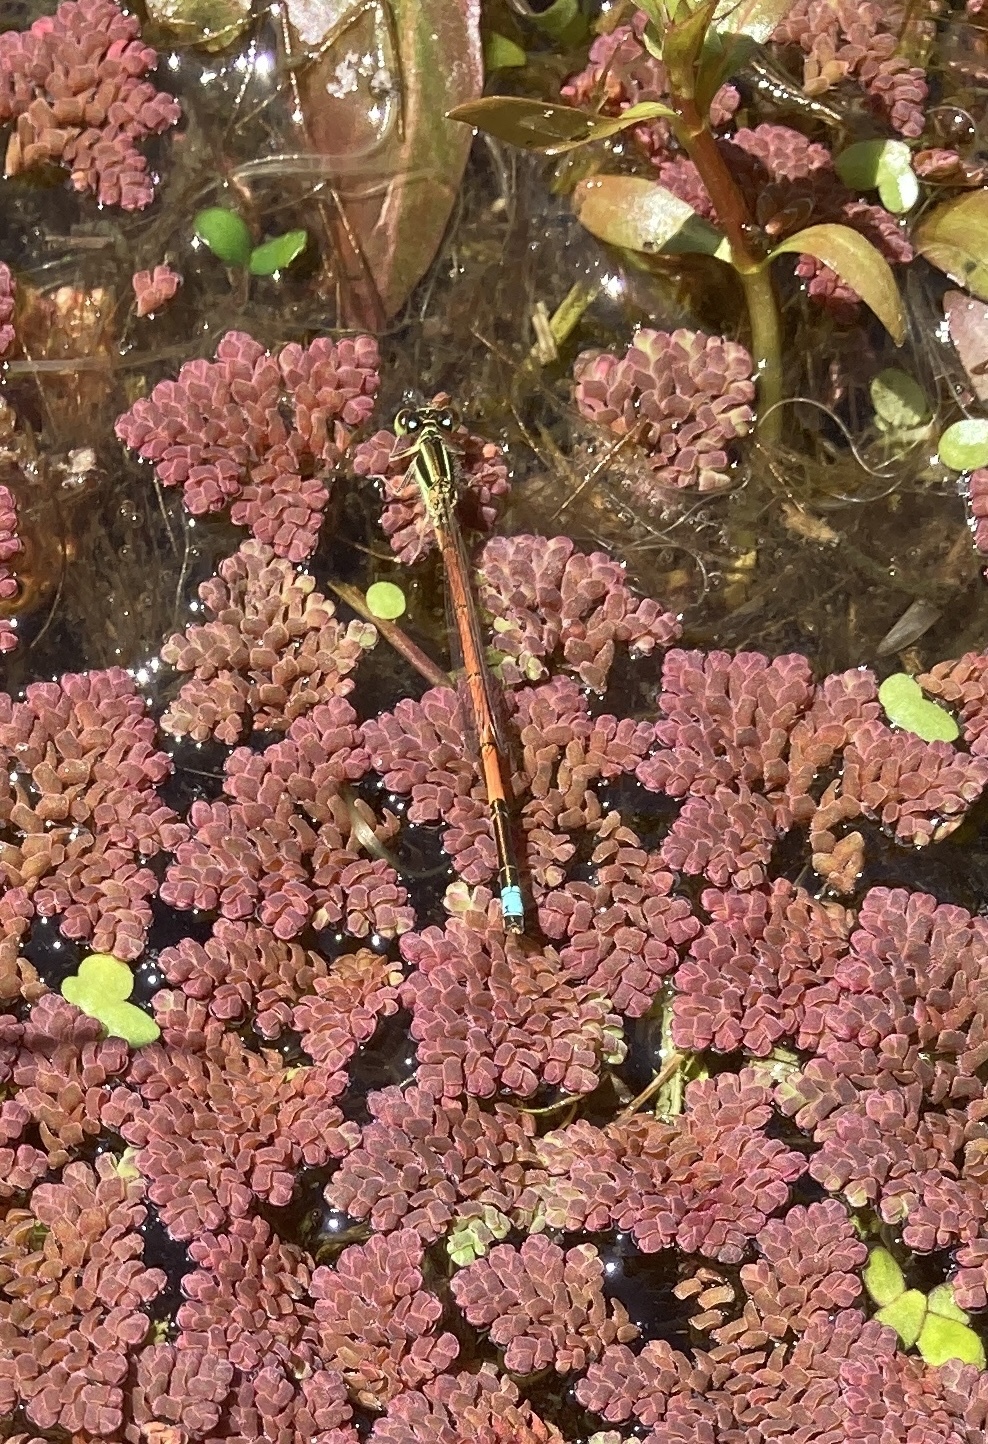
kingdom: Animalia
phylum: Arthropoda
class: Insecta
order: Odonata
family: Coenagrionidae
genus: Ischnura
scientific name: Ischnura aurora
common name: Gossamer damselfly
